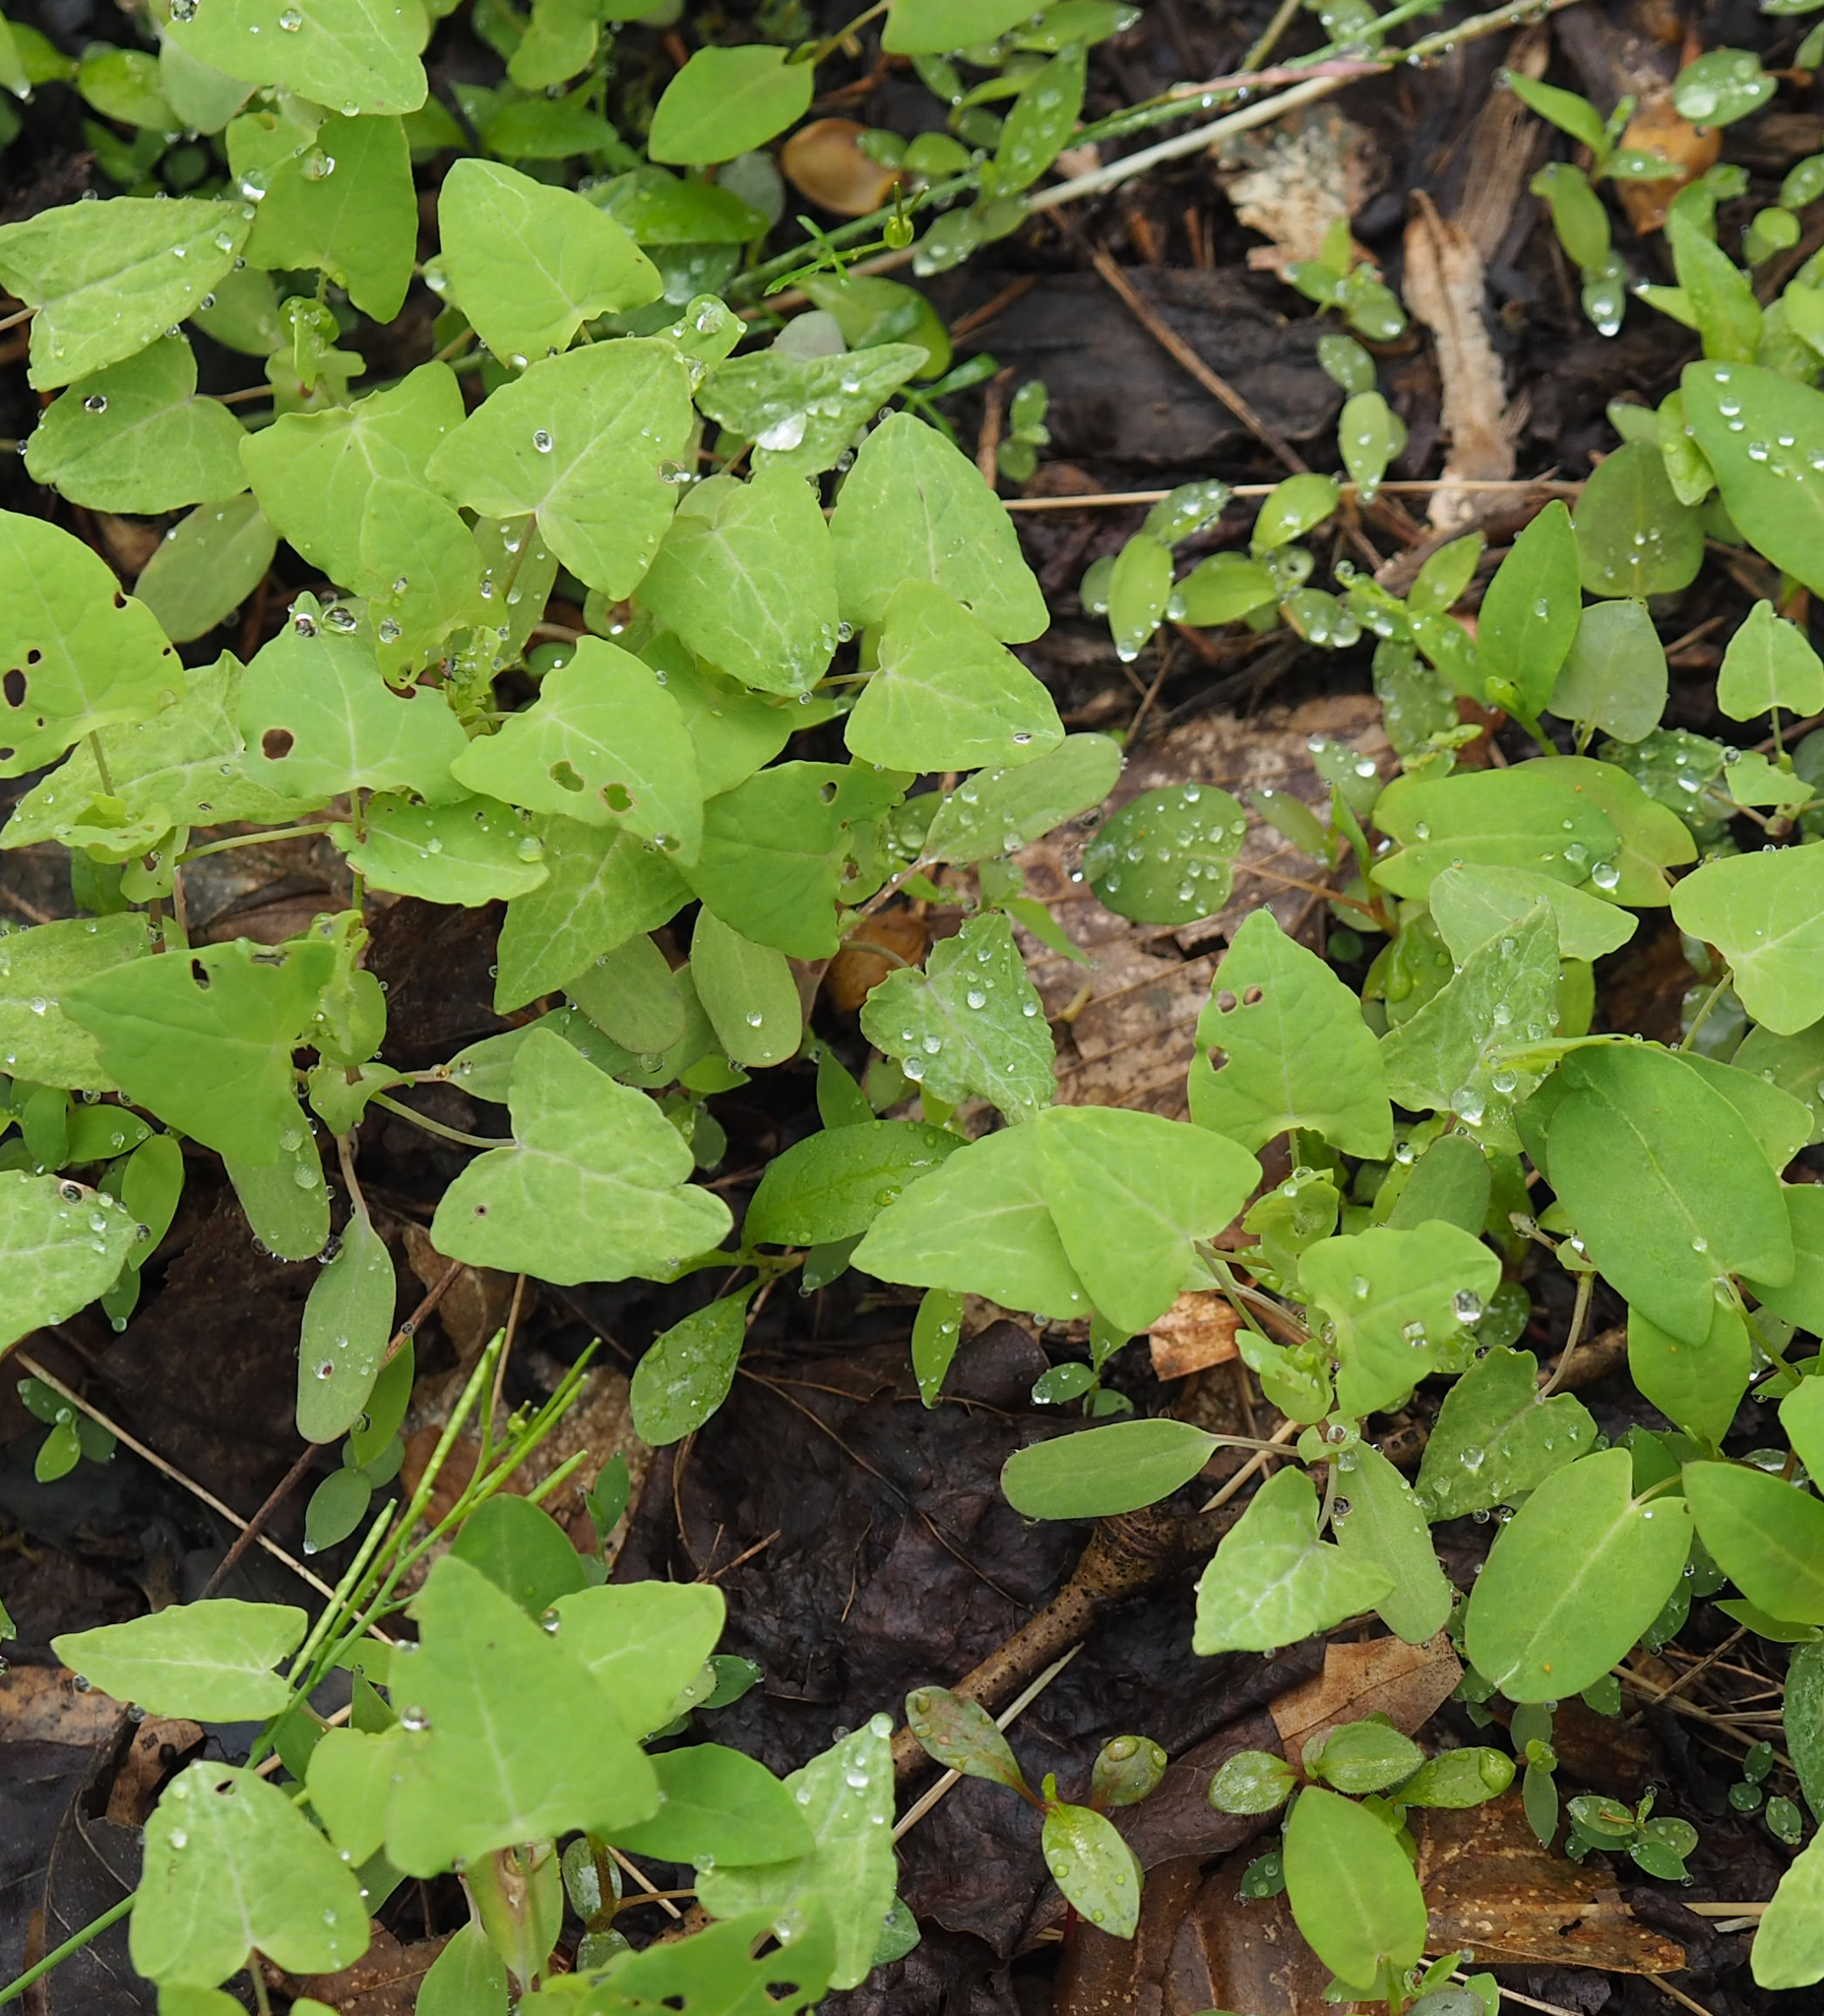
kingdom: Plantae
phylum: Tracheophyta
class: Magnoliopsida
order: Caryophyllales
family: Polygonaceae
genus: Persicaria
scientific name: Persicaria perfoliata
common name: Asiatic tearthumb
